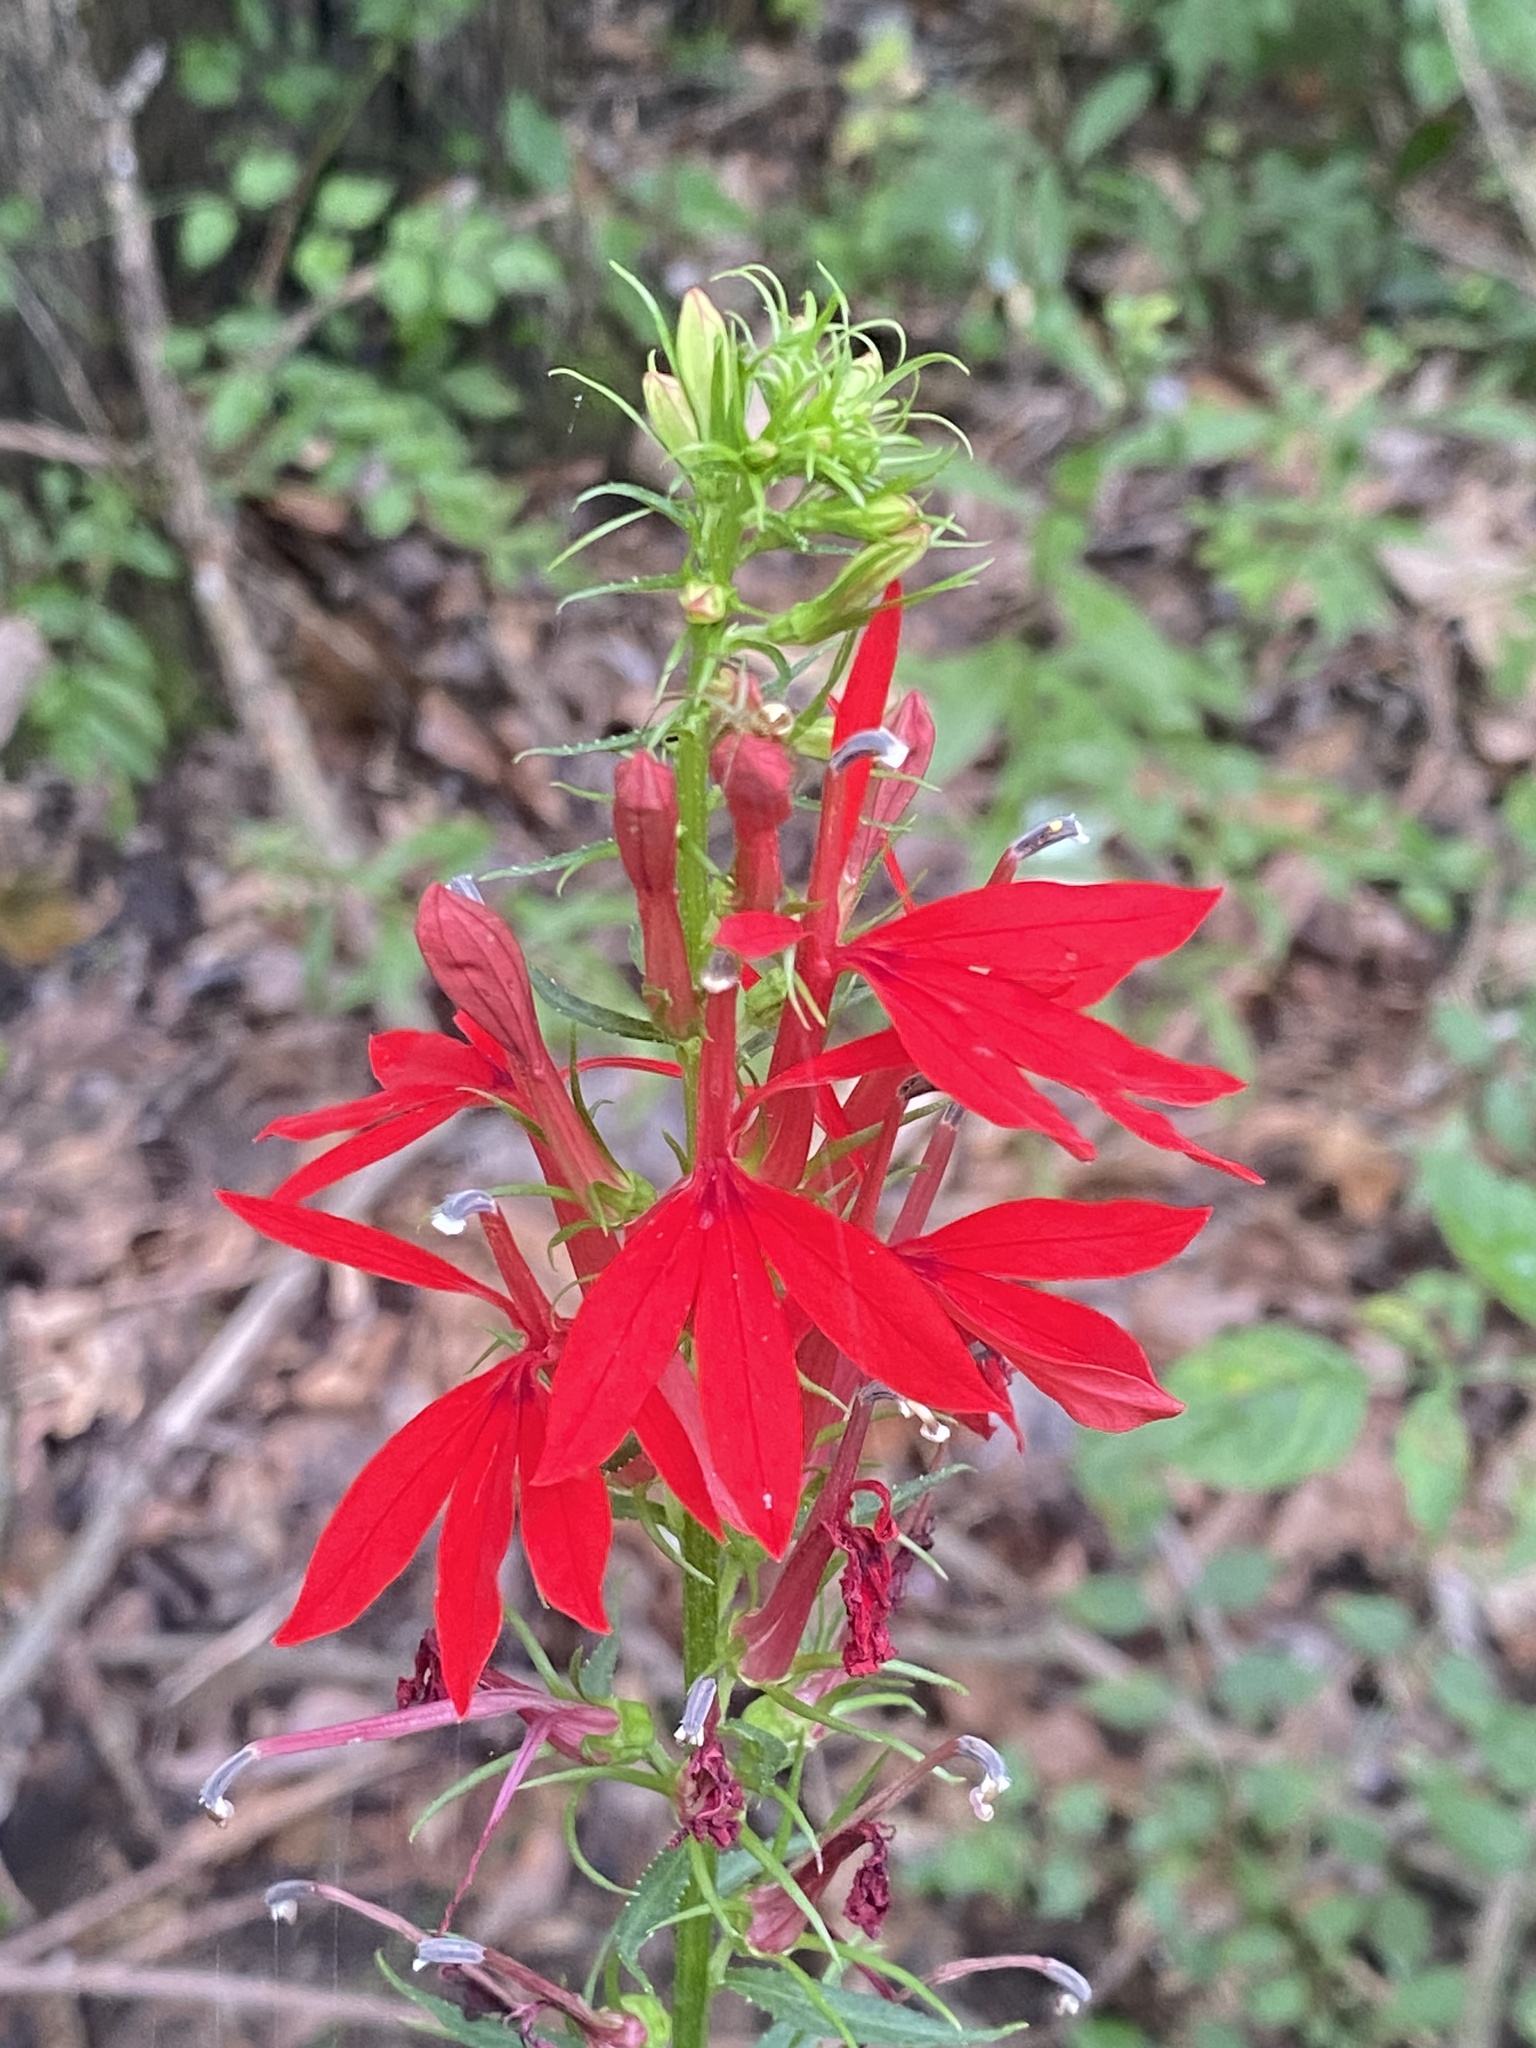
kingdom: Plantae
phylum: Tracheophyta
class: Magnoliopsida
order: Asterales
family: Campanulaceae
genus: Lobelia
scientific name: Lobelia cardinalis
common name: Cardinal flower
